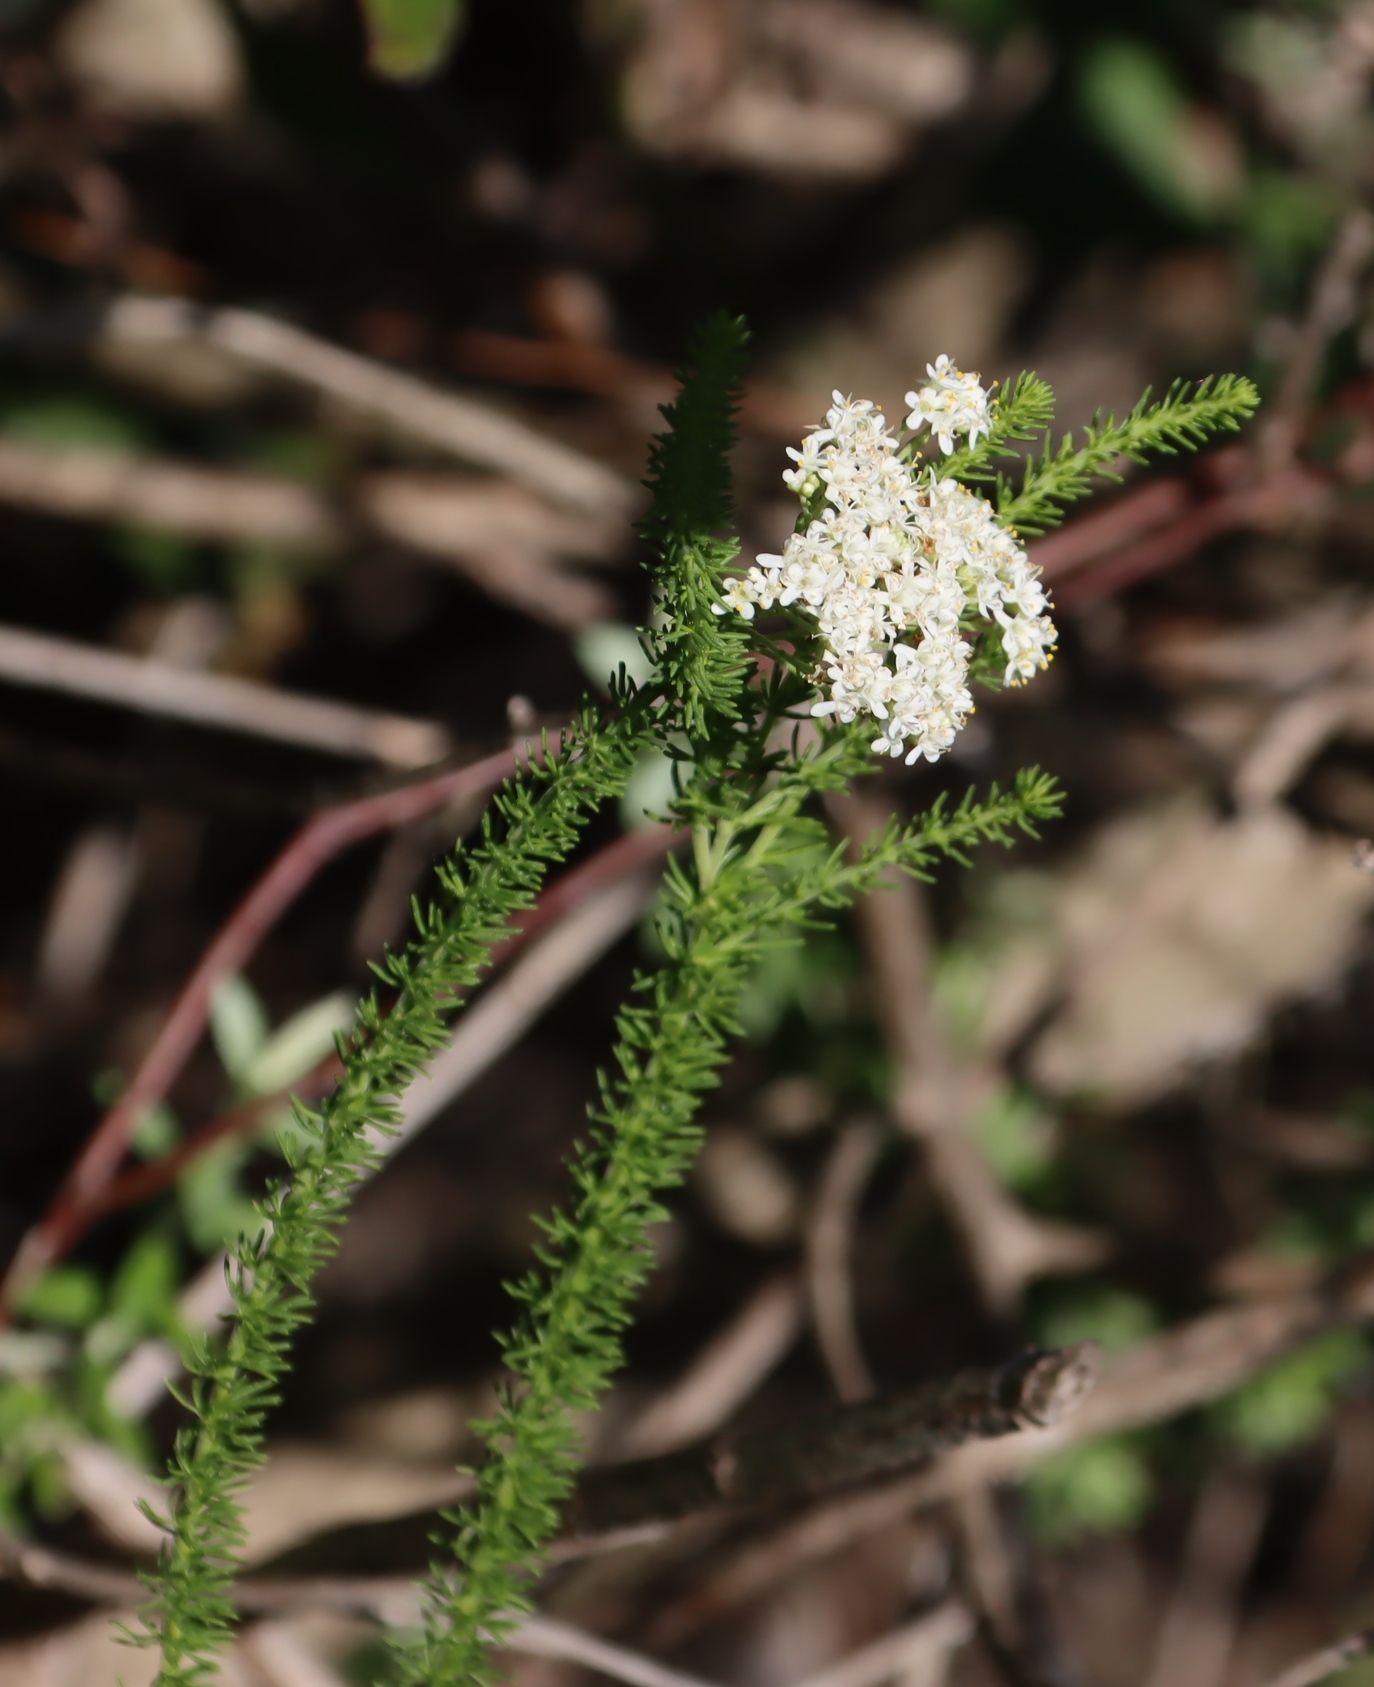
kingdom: Plantae
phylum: Tracheophyta
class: Magnoliopsida
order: Lamiales
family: Scrophulariaceae
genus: Selago
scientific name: Selago corymbosa
